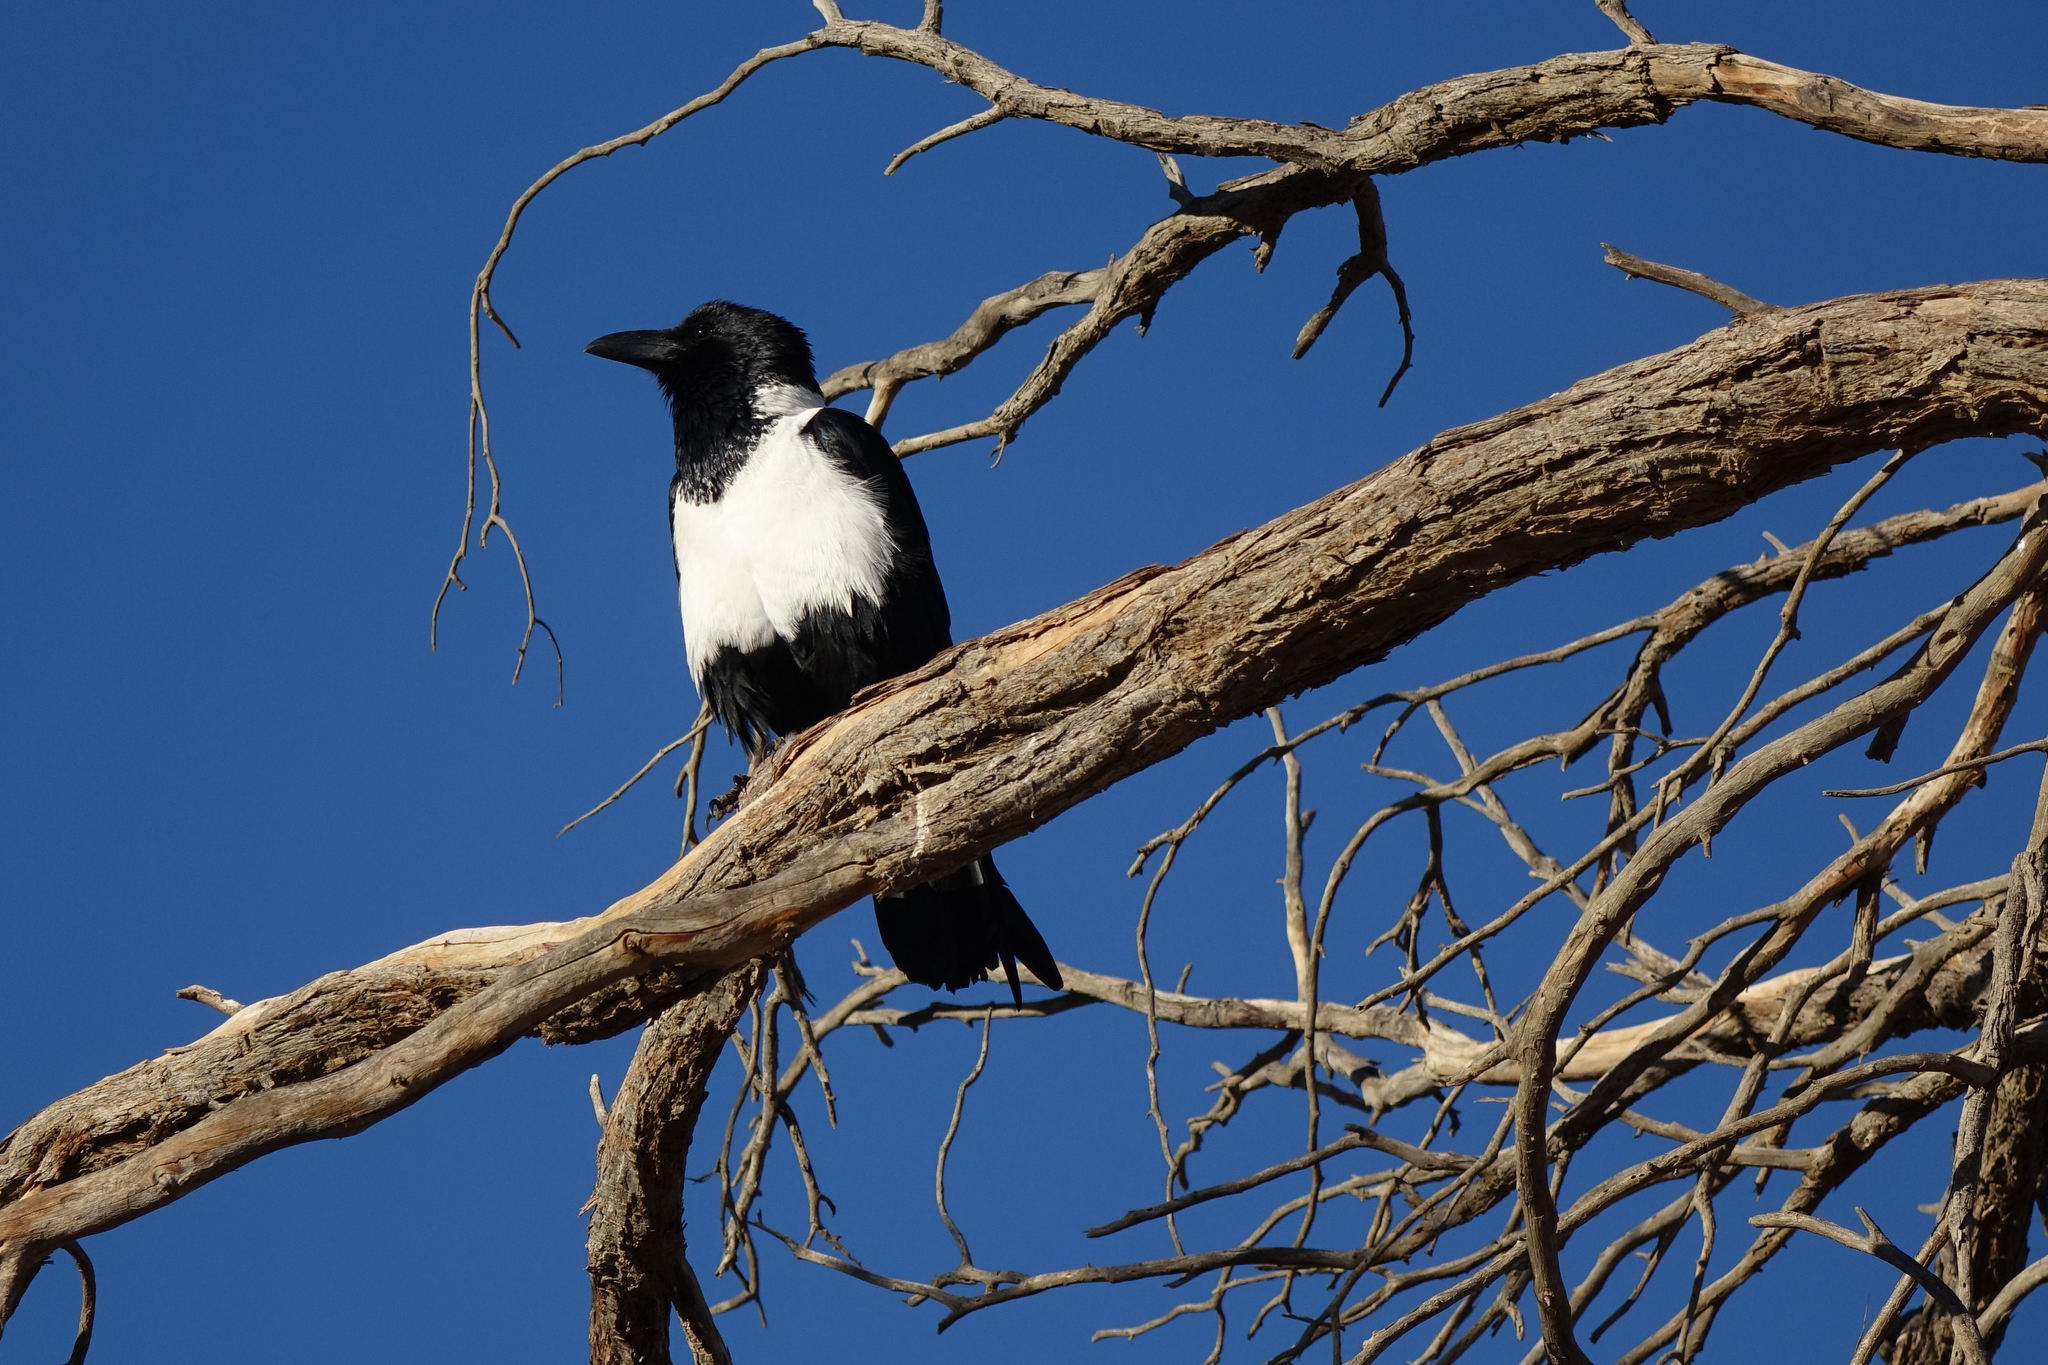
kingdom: Animalia
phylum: Chordata
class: Aves
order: Passeriformes
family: Corvidae
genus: Corvus
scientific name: Corvus albus
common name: Pied crow
